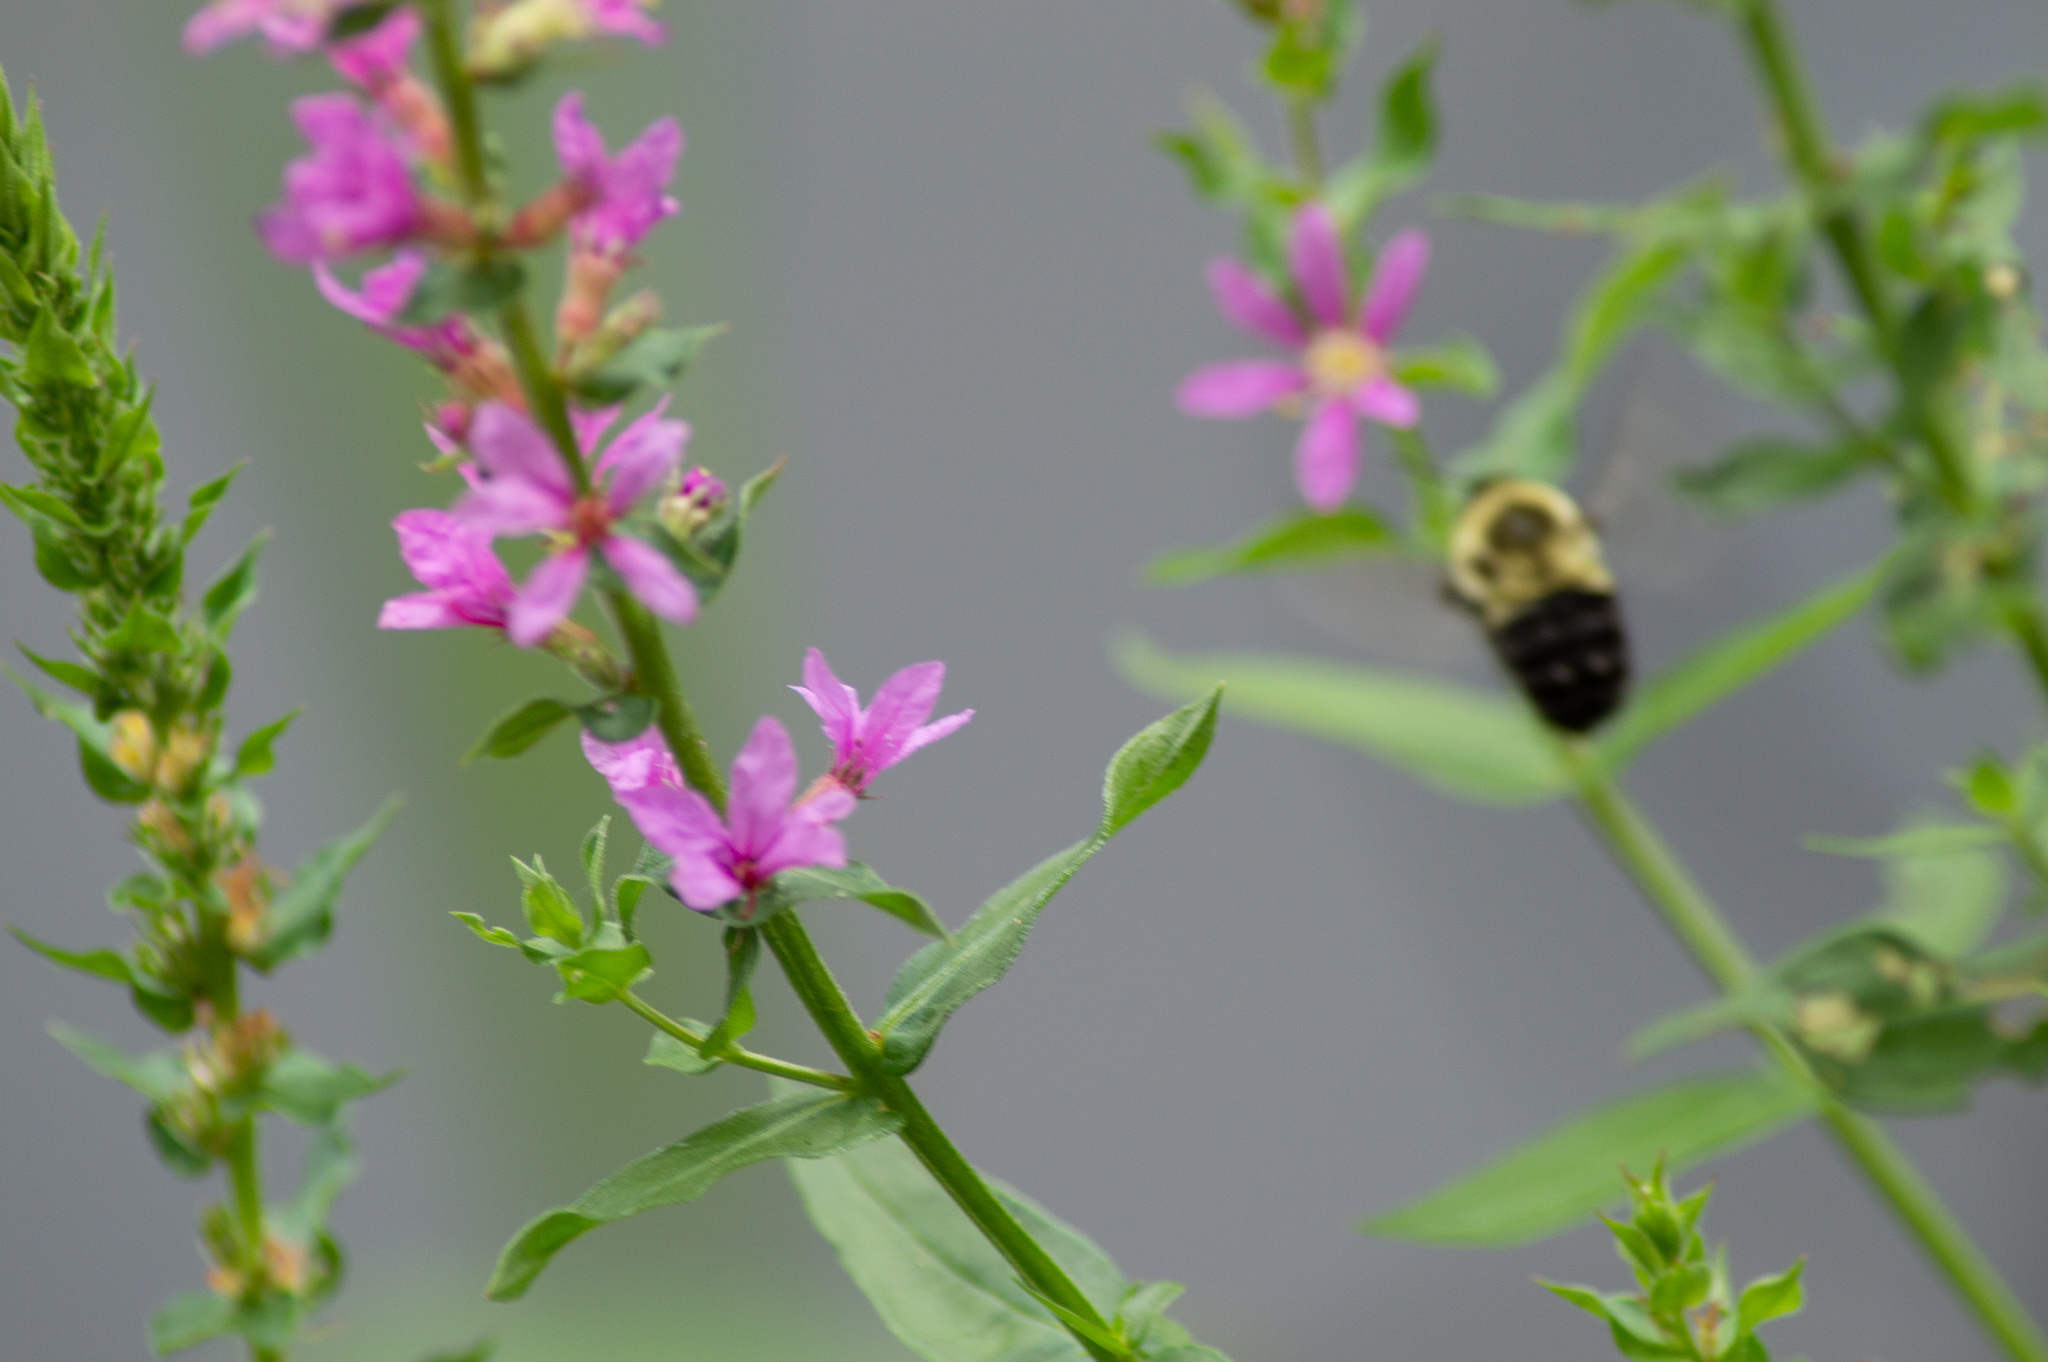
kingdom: Animalia
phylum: Arthropoda
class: Insecta
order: Hymenoptera
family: Apidae
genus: Bombus
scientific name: Bombus impatiens
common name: Common eastern bumble bee
